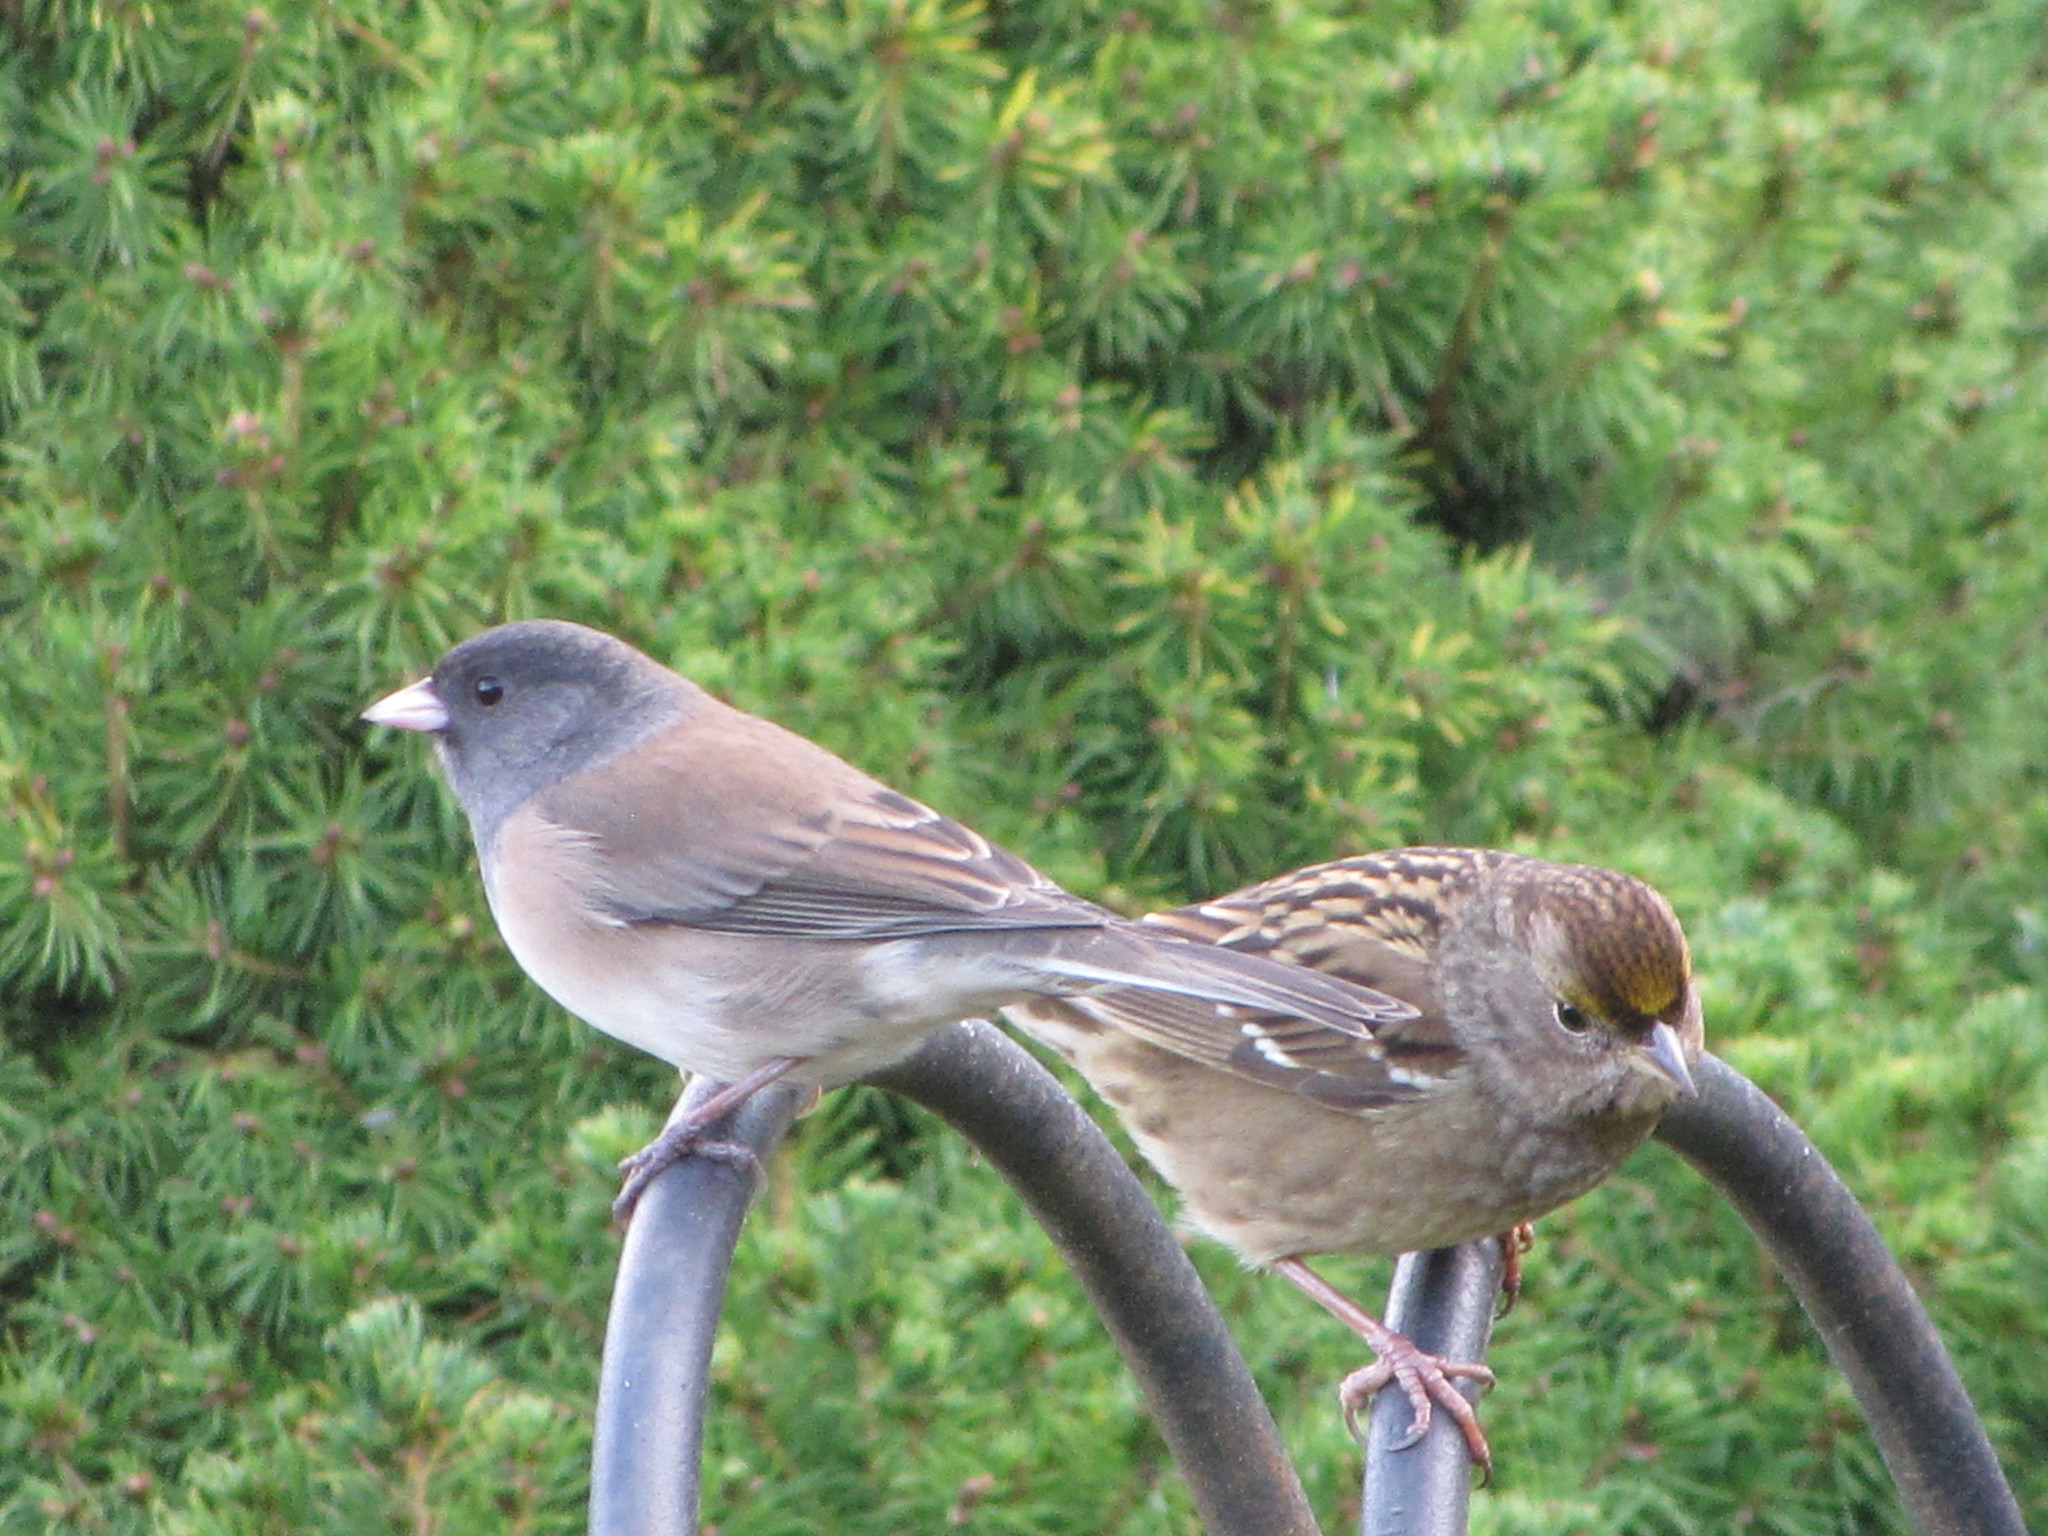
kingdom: Animalia
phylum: Chordata
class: Aves
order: Passeriformes
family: Passerellidae
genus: Junco
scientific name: Junco hyemalis
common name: Dark-eyed junco
